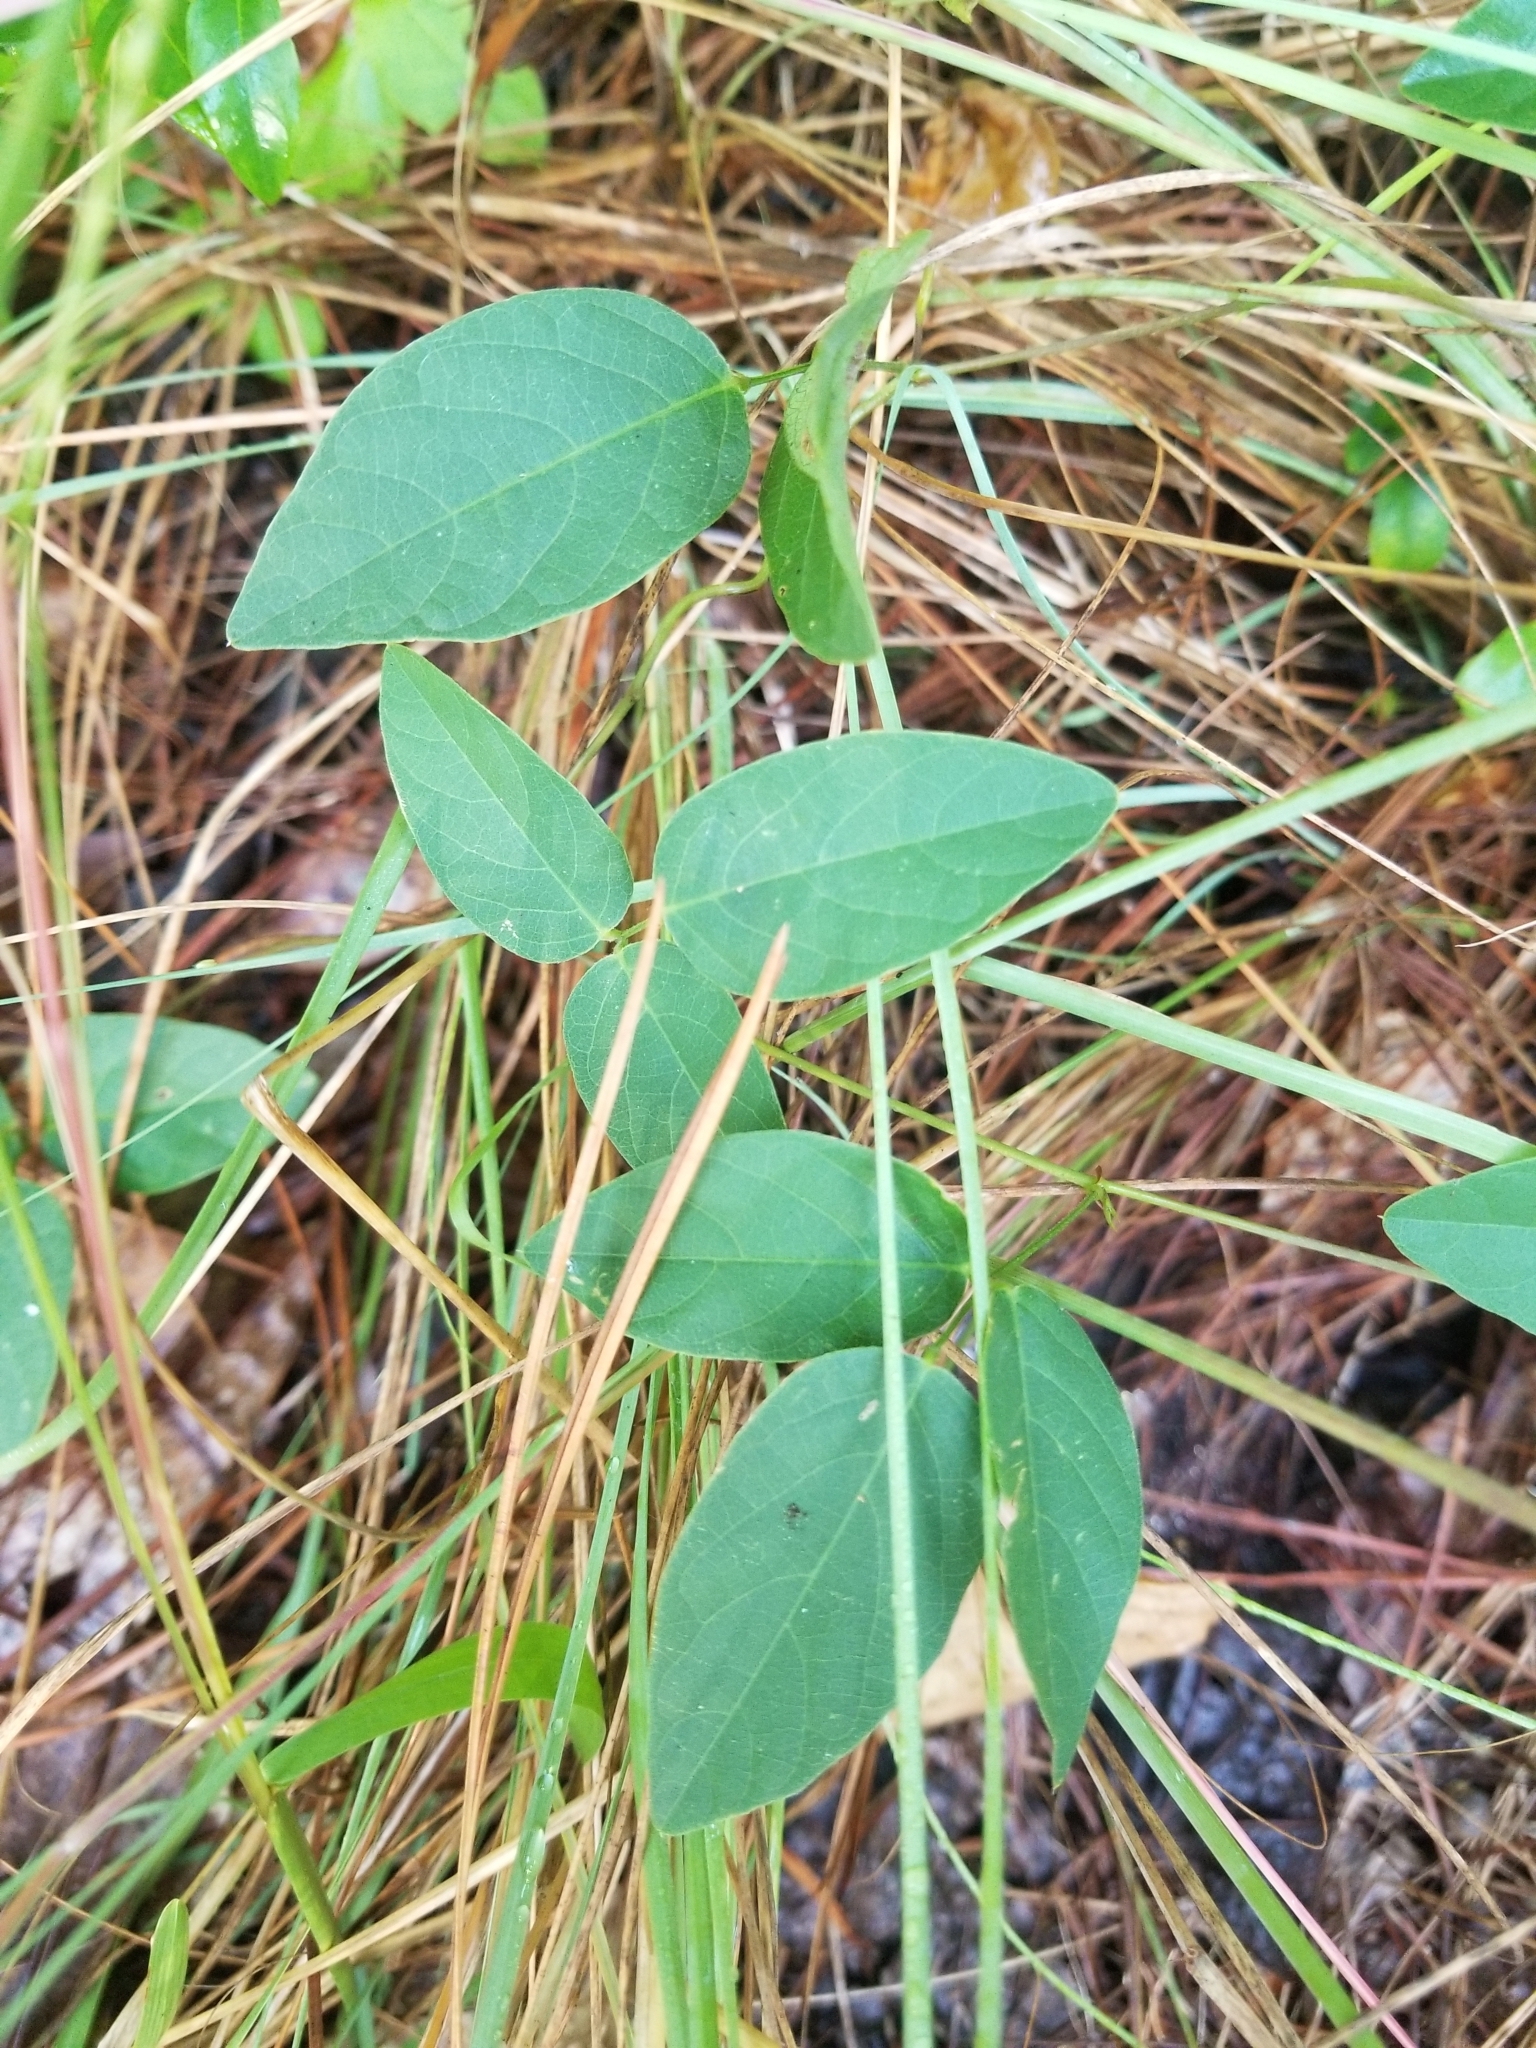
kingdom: Plantae
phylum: Tracheophyta
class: Magnoliopsida
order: Fabales
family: Fabaceae
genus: Centrosema
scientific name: Centrosema virginianum
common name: Butterfly-pea
